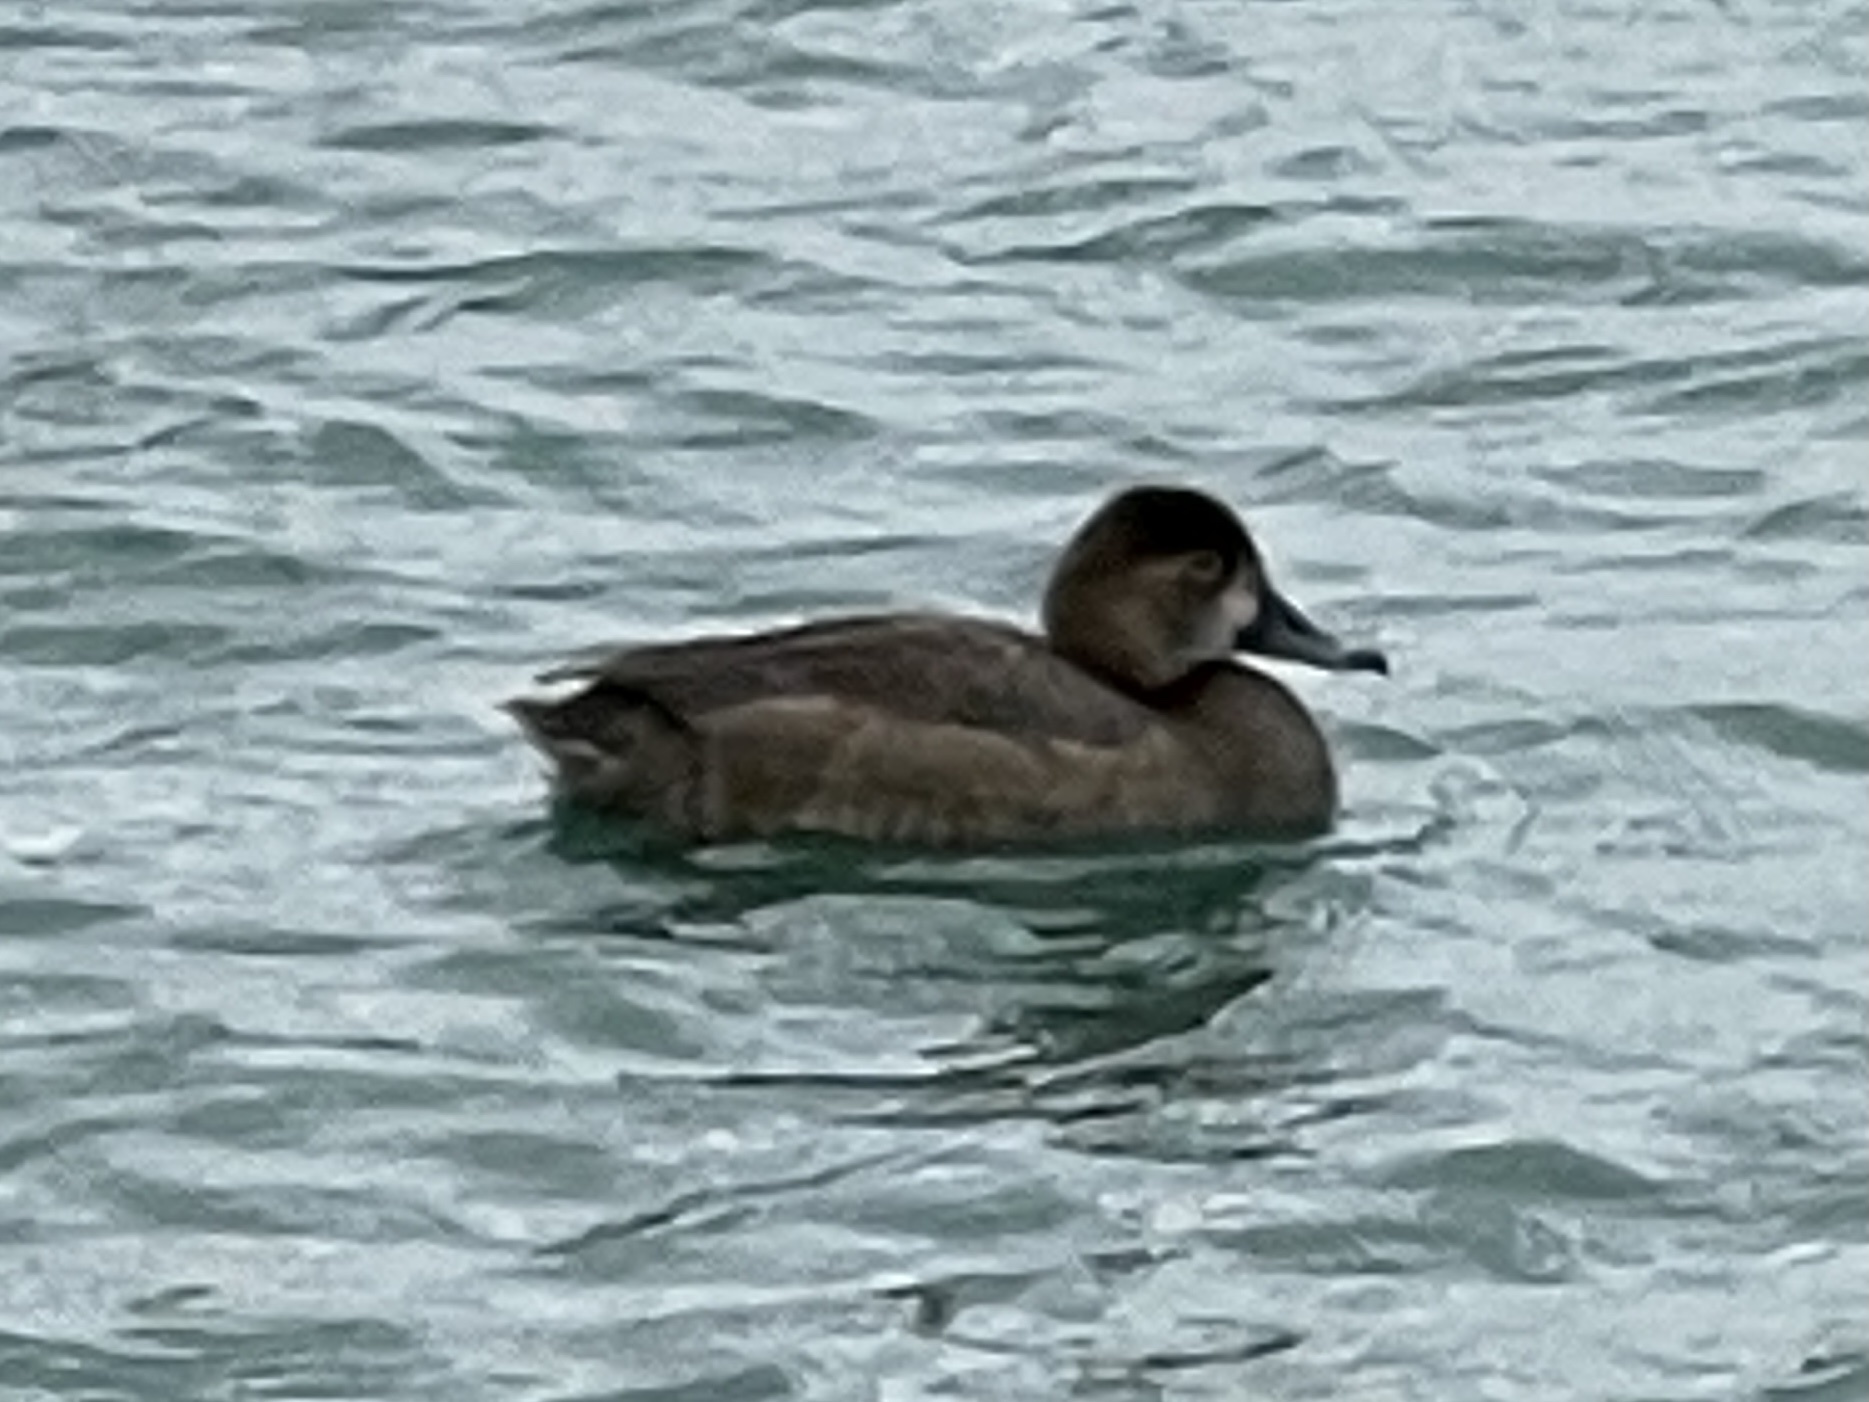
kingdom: Animalia
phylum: Chordata
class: Aves
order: Anseriformes
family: Anatidae
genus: Aythya
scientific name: Aythya americana
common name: Redhead
